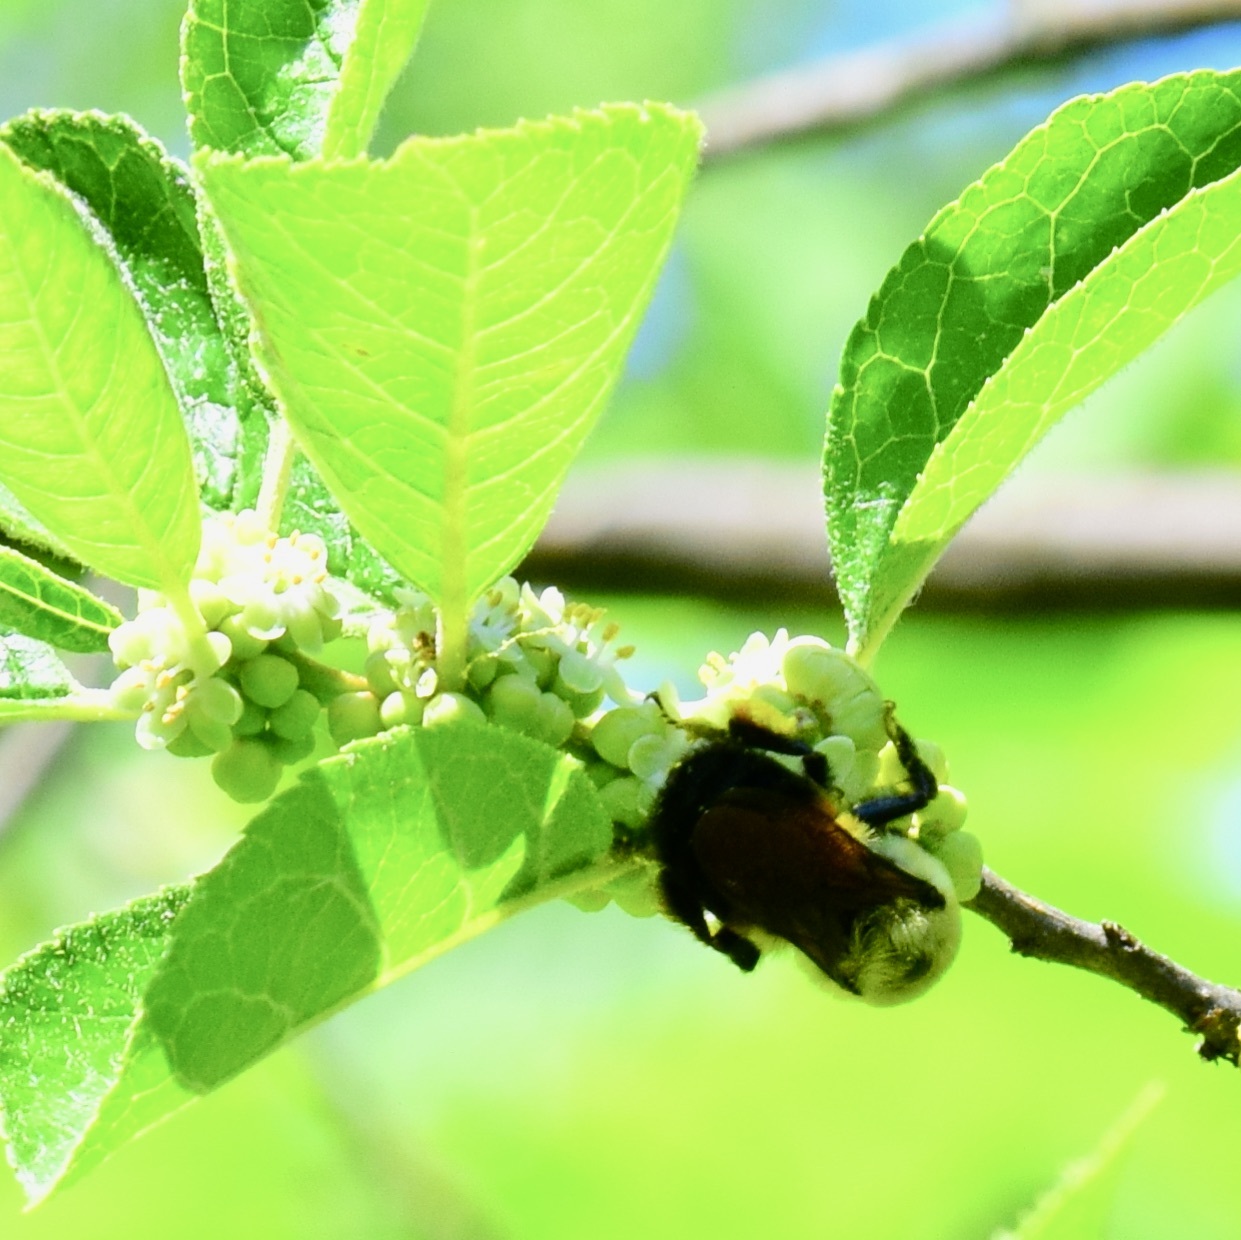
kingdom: Animalia
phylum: Arthropoda
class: Insecta
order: Hymenoptera
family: Apidae
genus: Bombus
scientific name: Bombus griseocollis
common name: Brown-belted bumble bee
